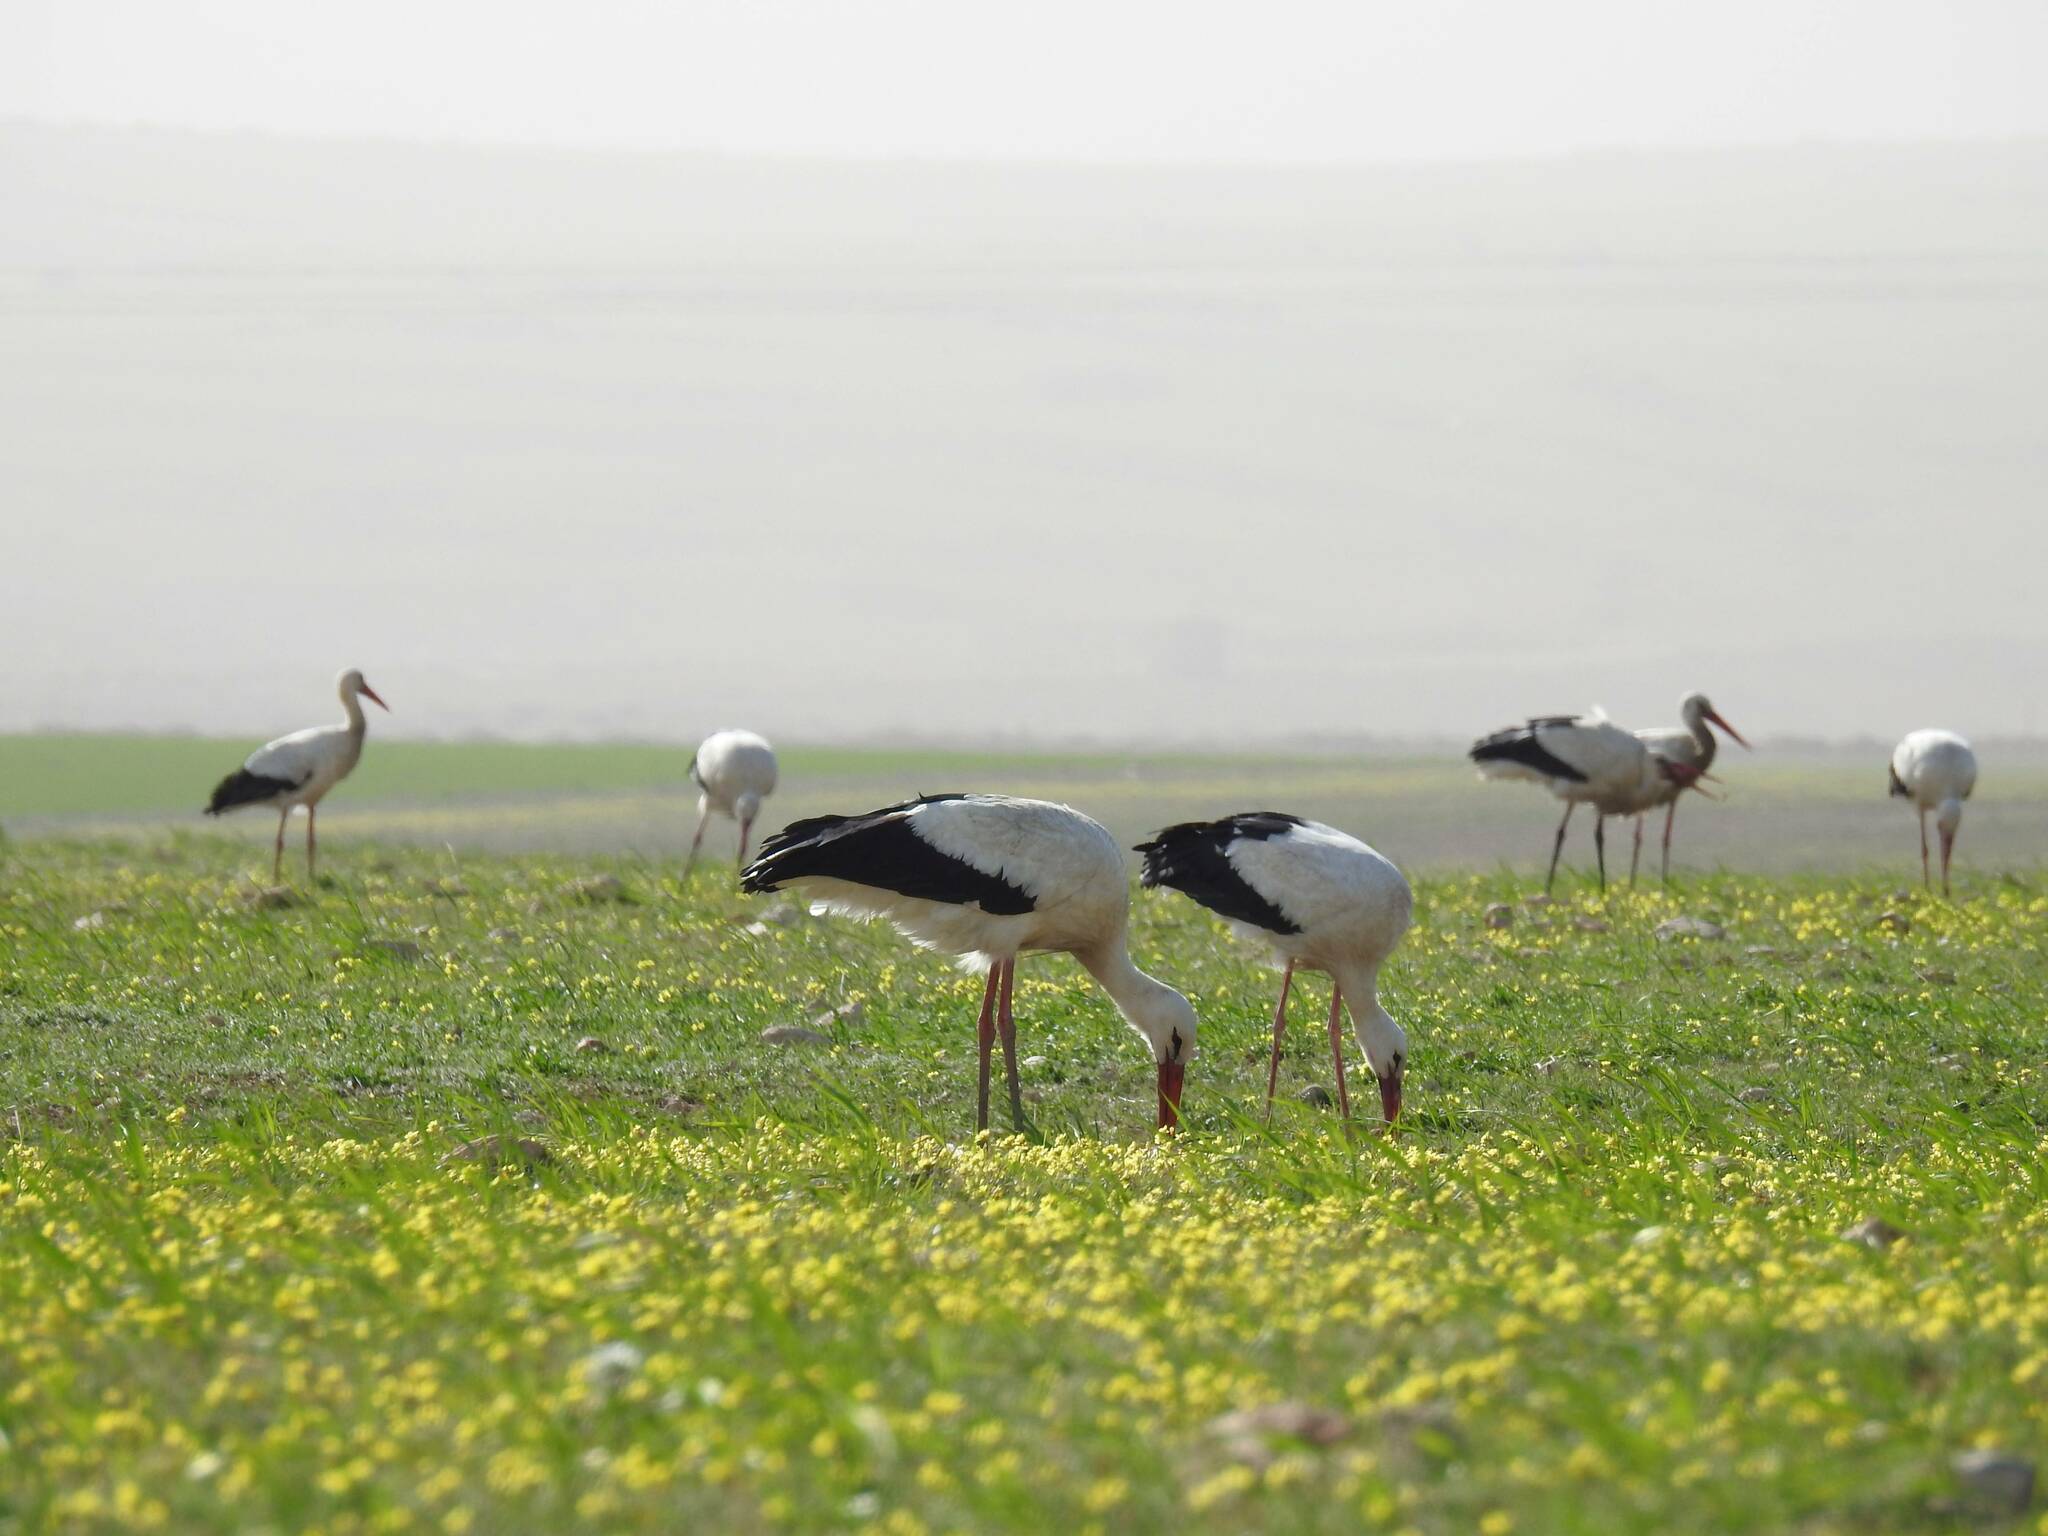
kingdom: Animalia
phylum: Chordata
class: Aves
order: Ciconiiformes
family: Ciconiidae
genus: Ciconia
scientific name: Ciconia ciconia
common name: White stork
